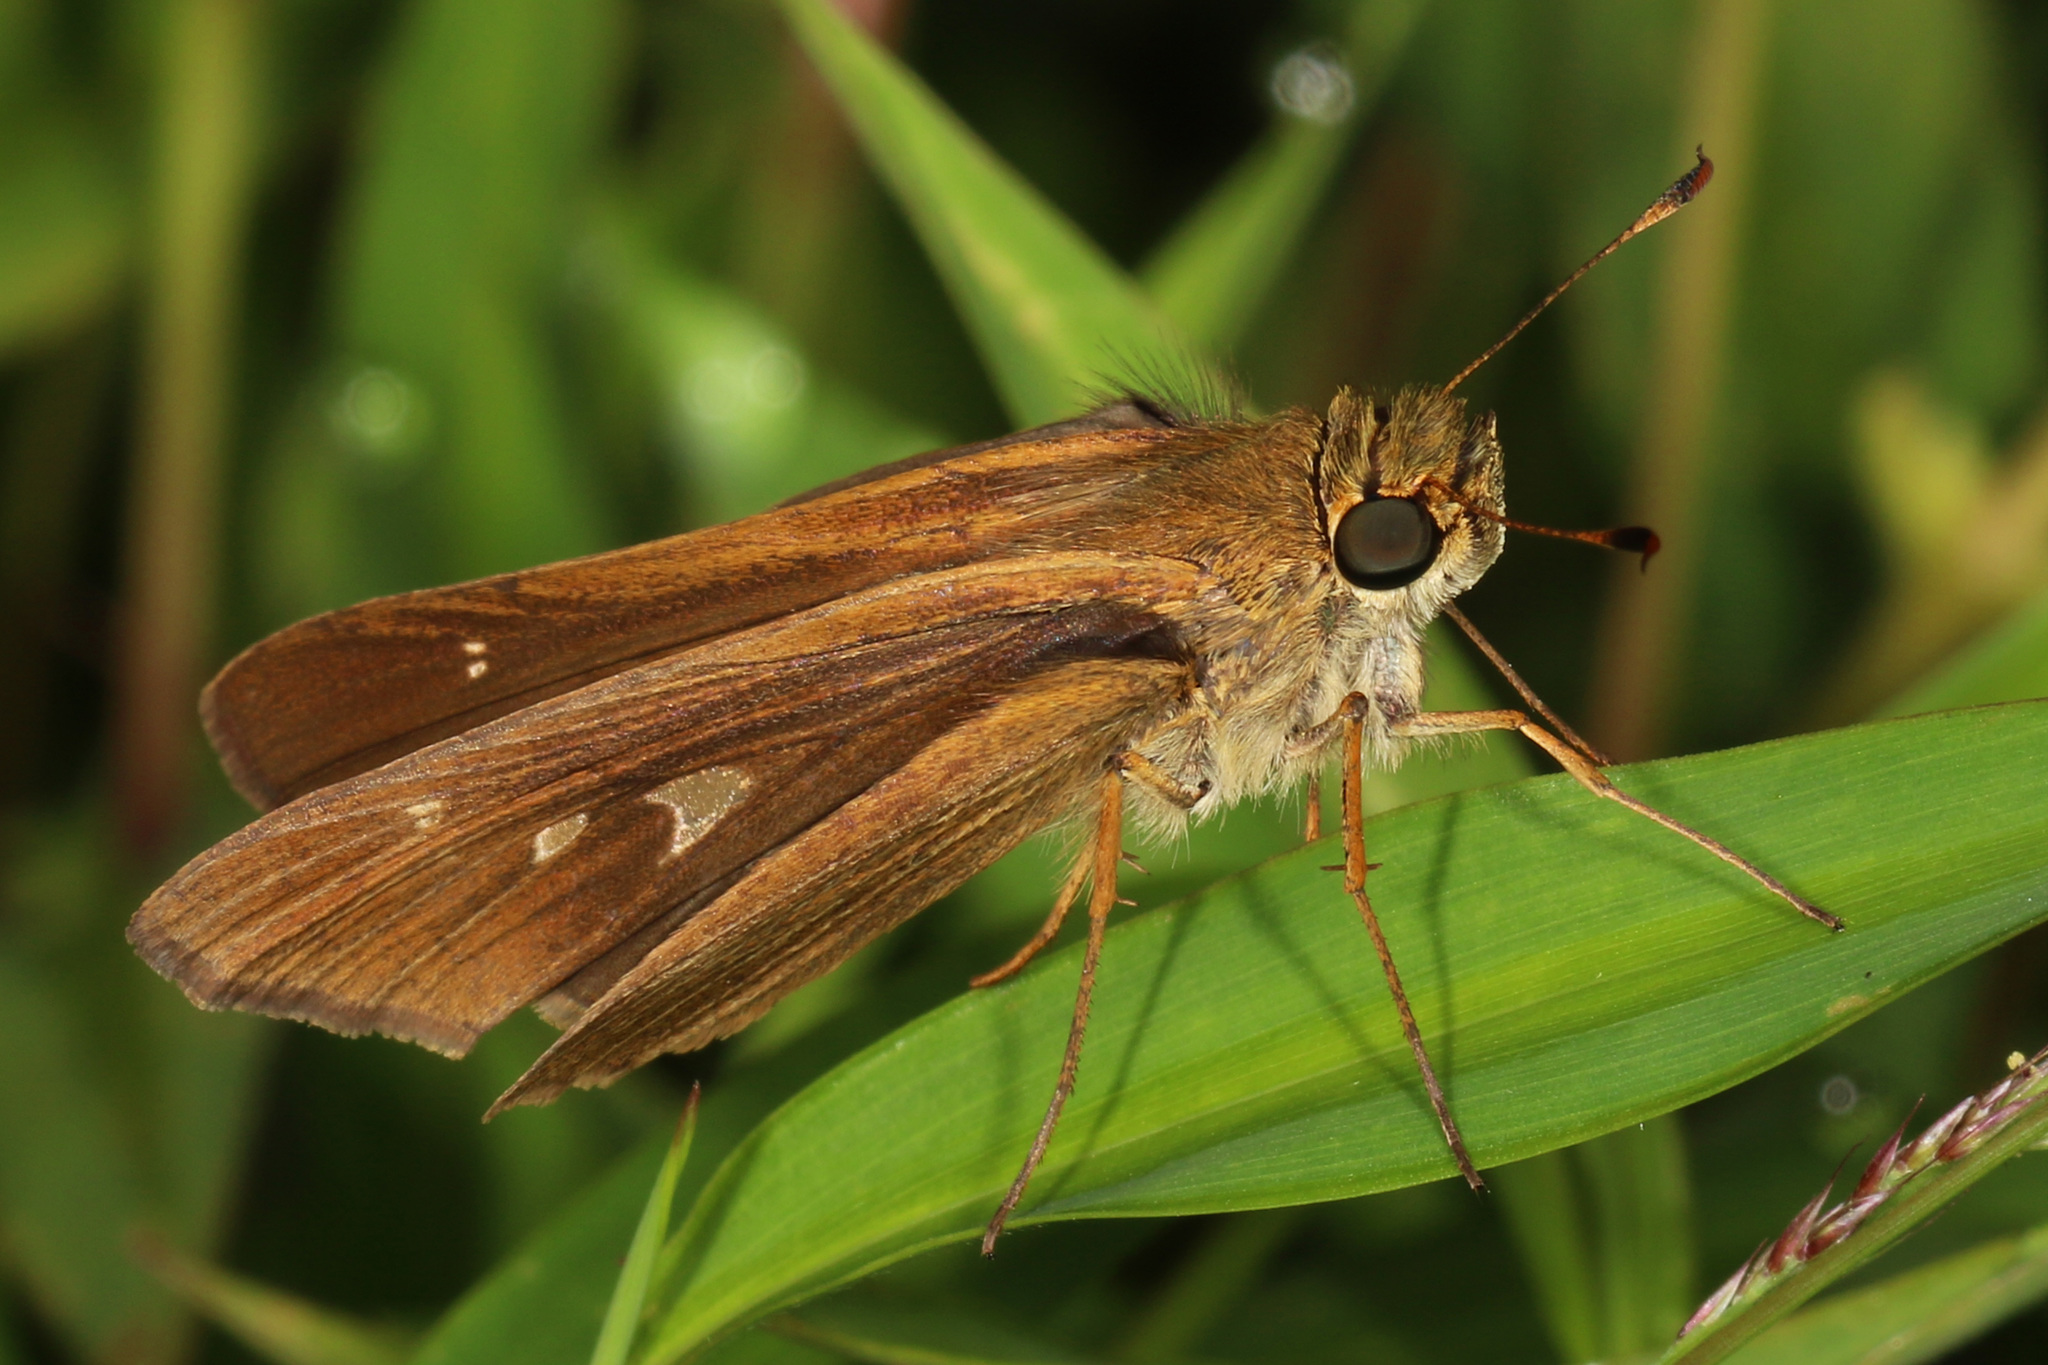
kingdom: Animalia
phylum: Arthropoda
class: Insecta
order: Lepidoptera
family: Hesperiidae
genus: Panoquina
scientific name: Panoquina ocola
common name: Ocola skipper
